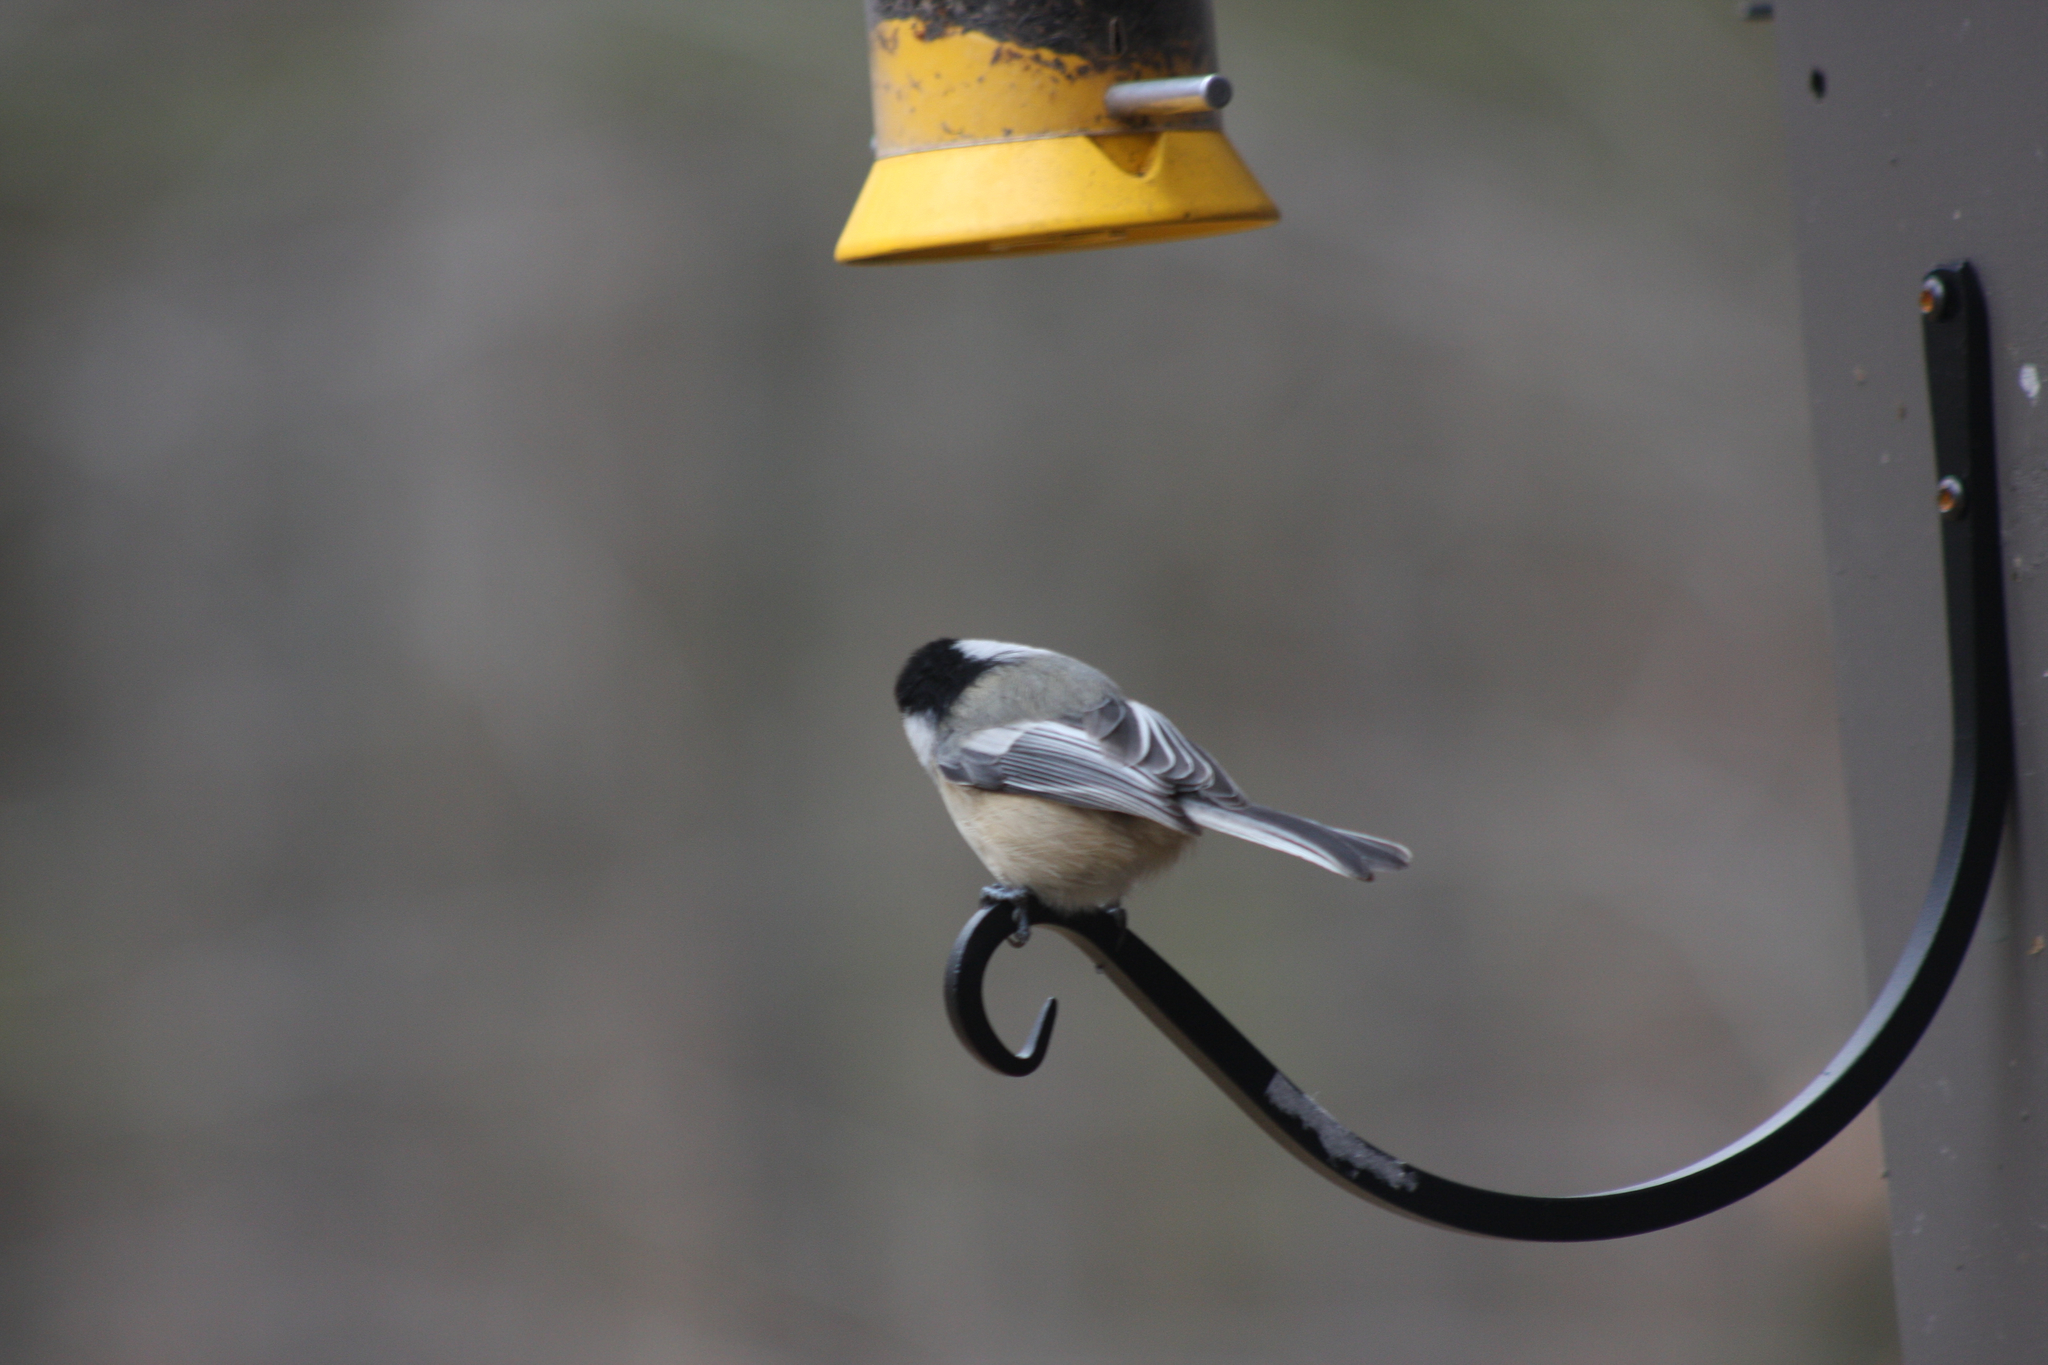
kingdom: Animalia
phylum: Chordata
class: Aves
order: Passeriformes
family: Paridae
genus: Poecile
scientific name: Poecile atricapillus
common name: Black-capped chickadee
